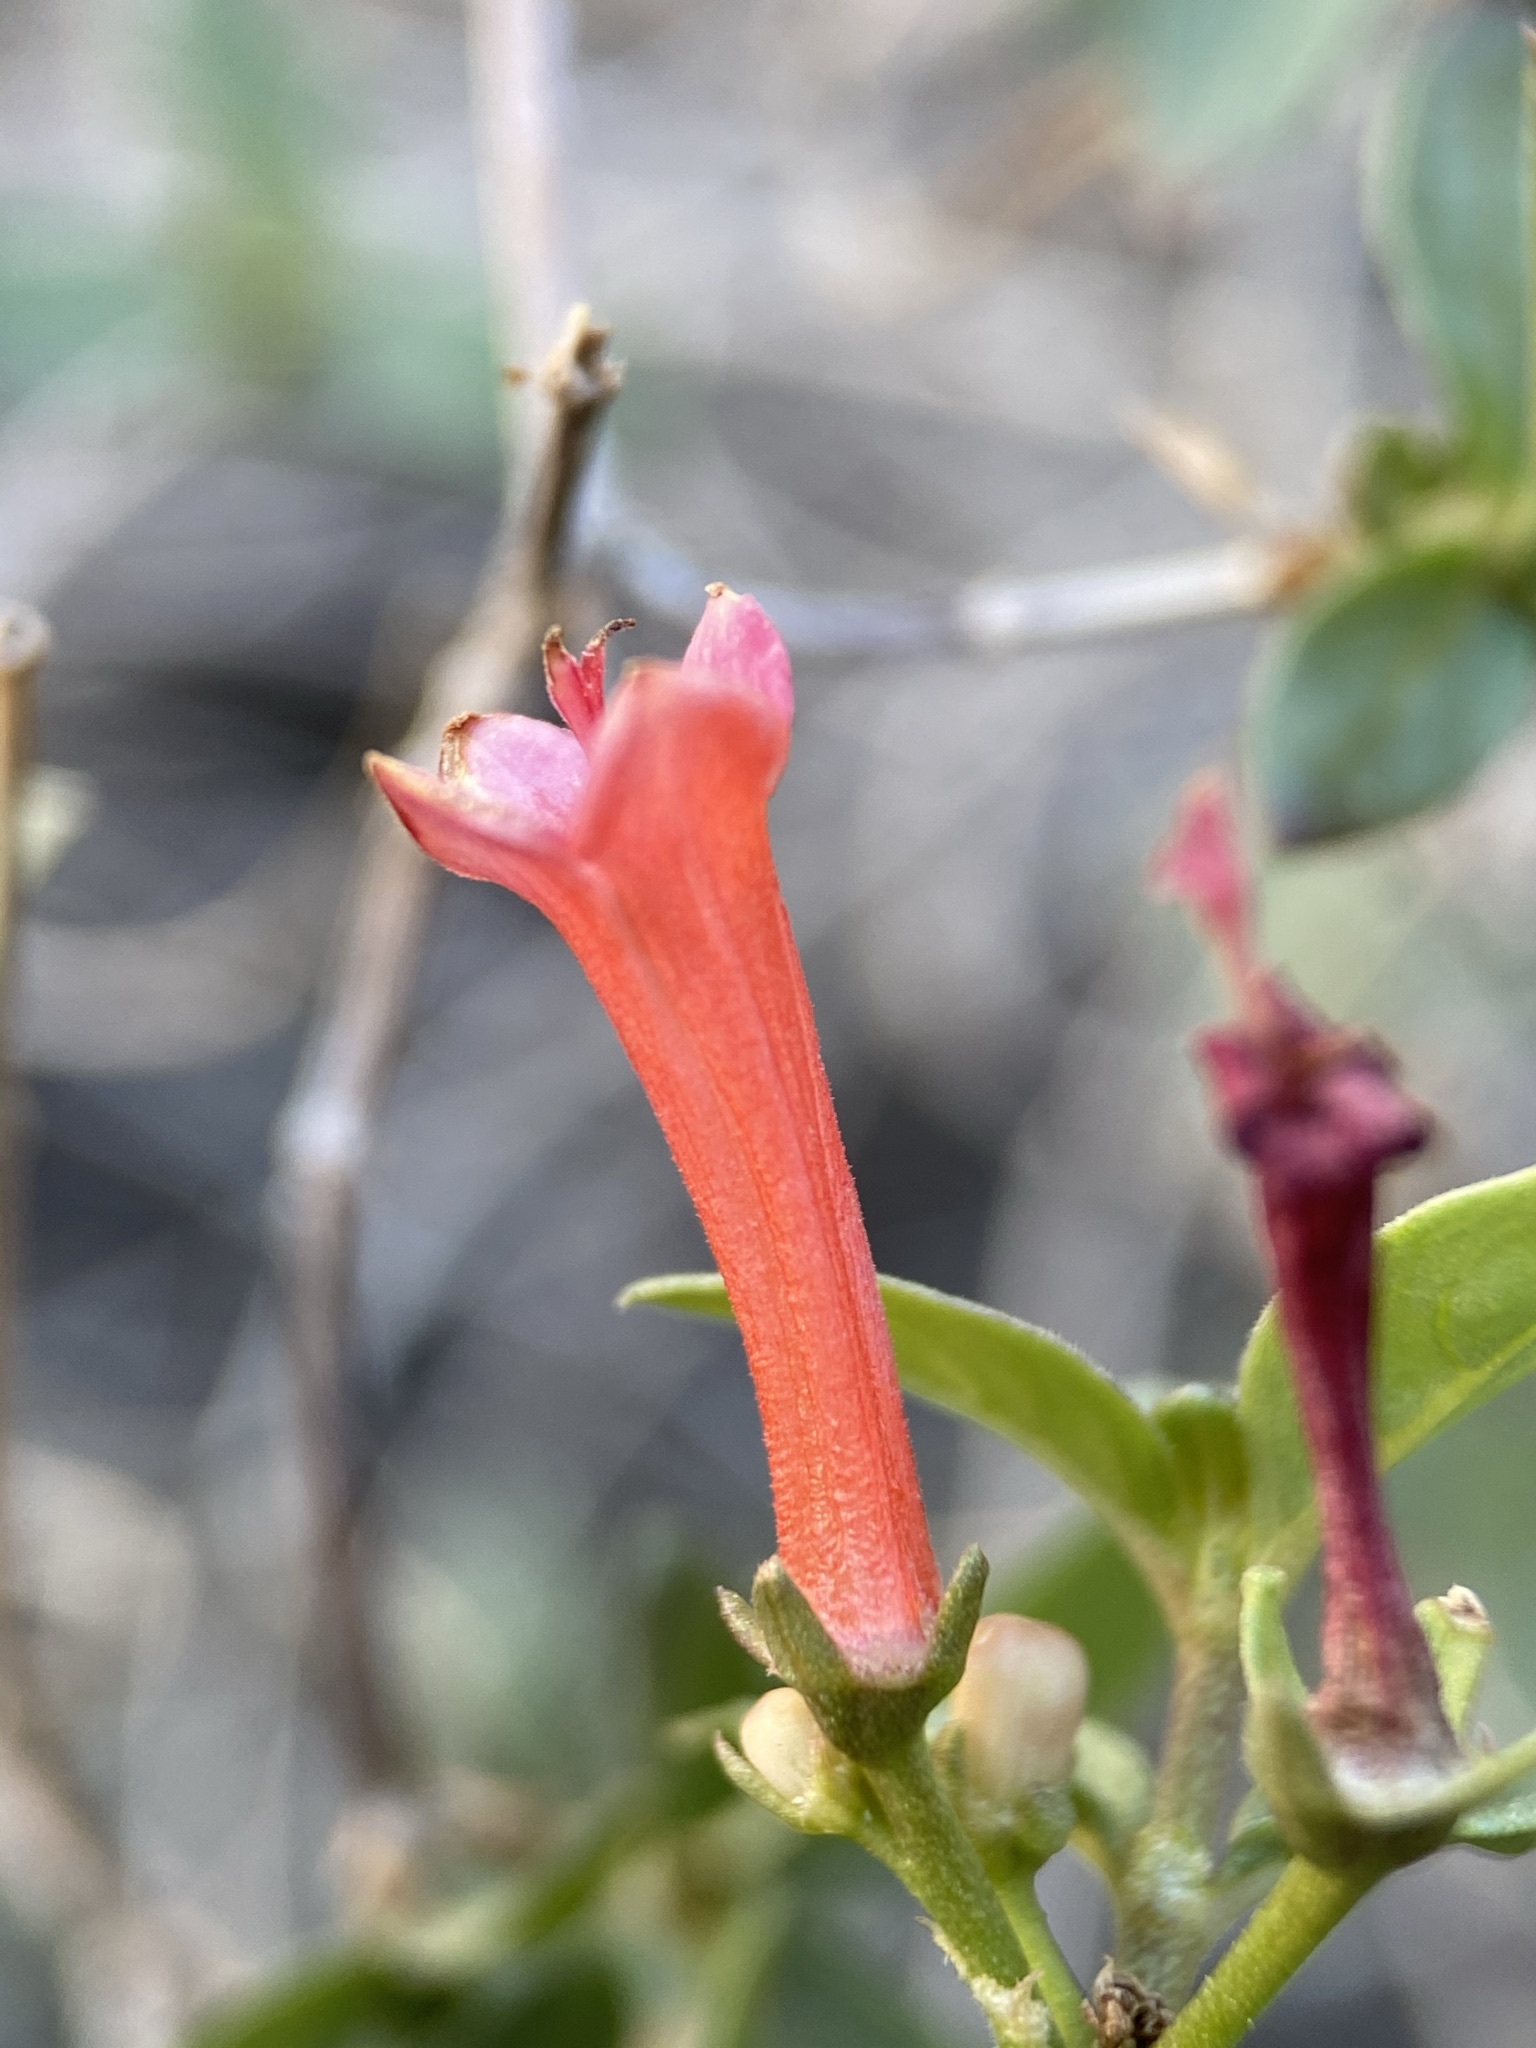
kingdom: Plantae
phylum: Tracheophyta
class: Magnoliopsida
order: Gentianales
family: Rubiaceae
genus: Bouvardia
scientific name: Bouvardia ternifolia
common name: Scarlet bouvardia
